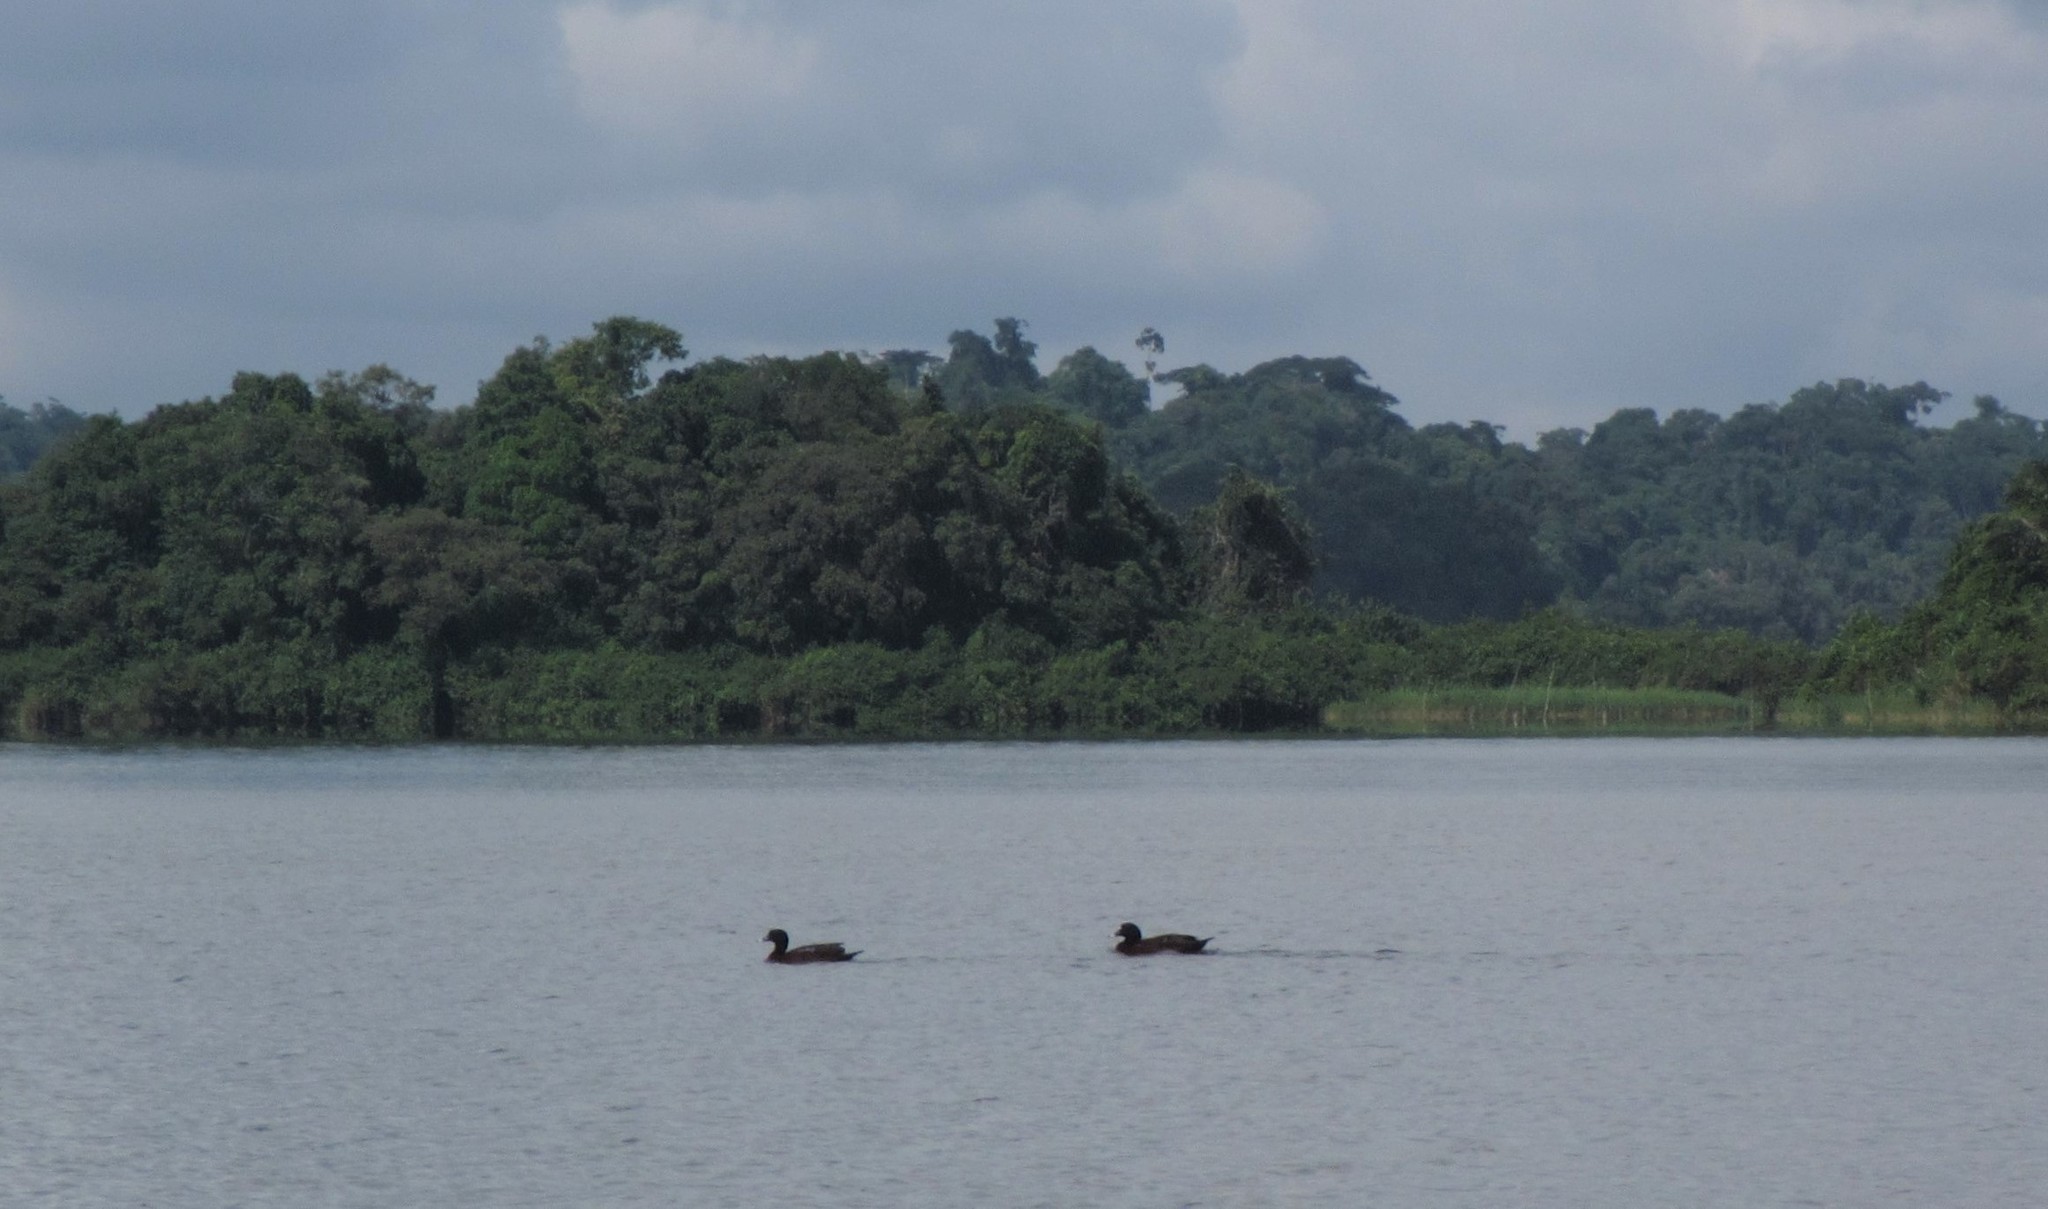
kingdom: Animalia
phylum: Chordata
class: Aves
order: Anseriformes
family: Anatidae
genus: Pteronetta
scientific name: Pteronetta hartlaubii
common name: Hartlaub's duck
